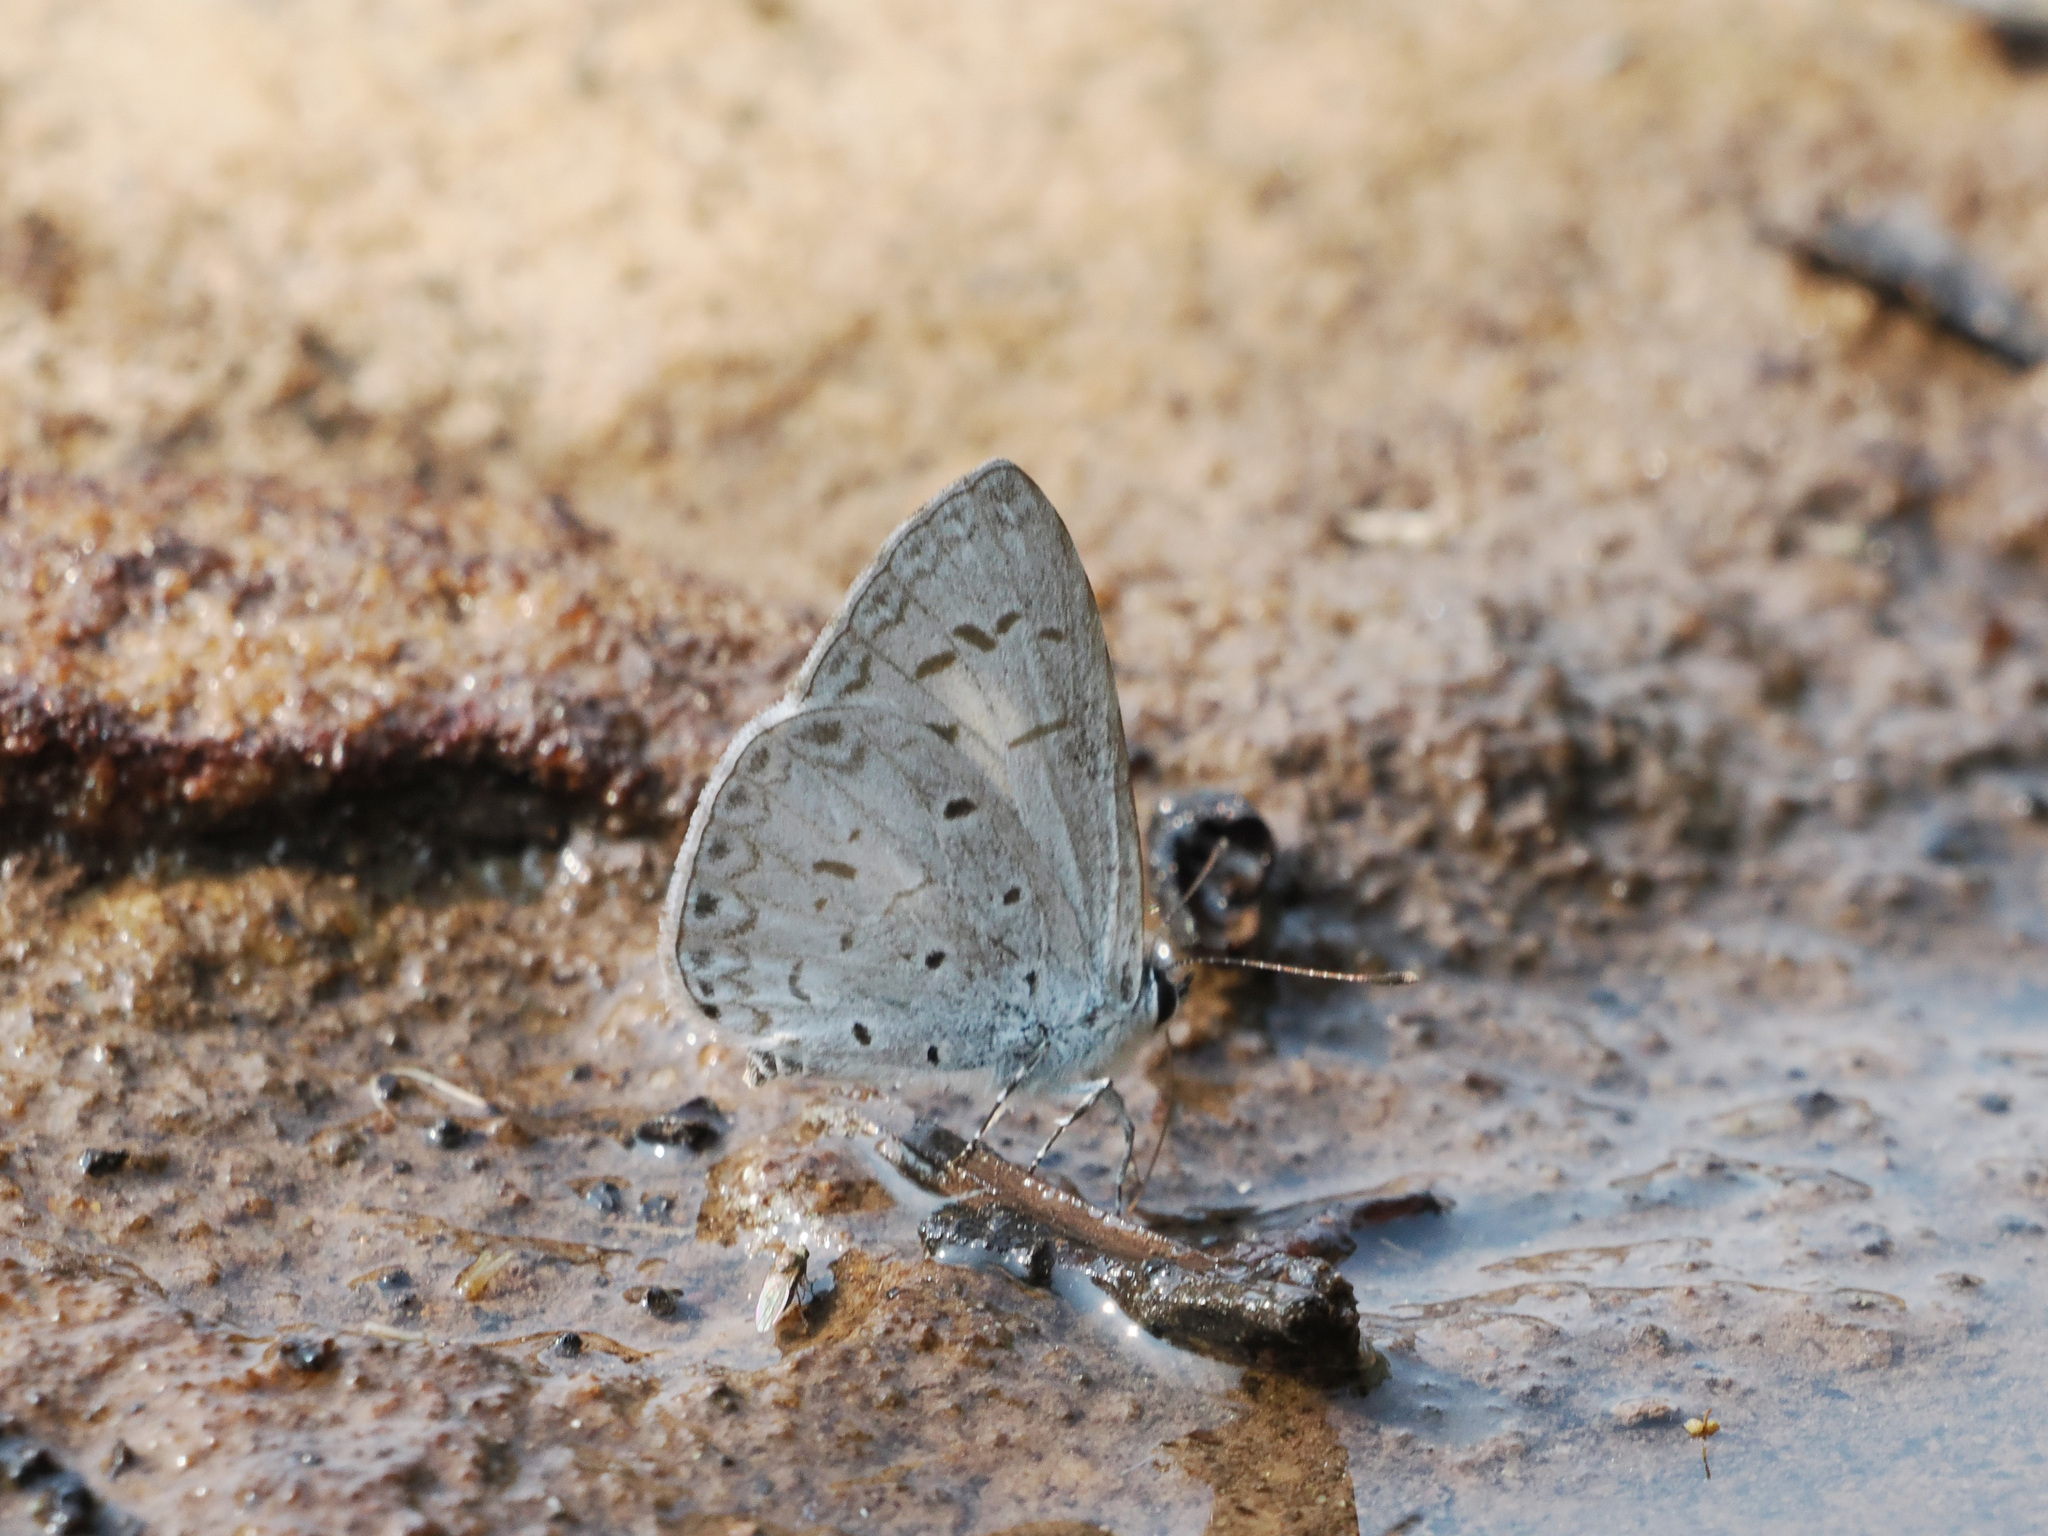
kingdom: Animalia
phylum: Arthropoda
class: Insecta
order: Lepidoptera
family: Lycaenidae
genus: Acytolepis
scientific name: Acytolepis puspa
